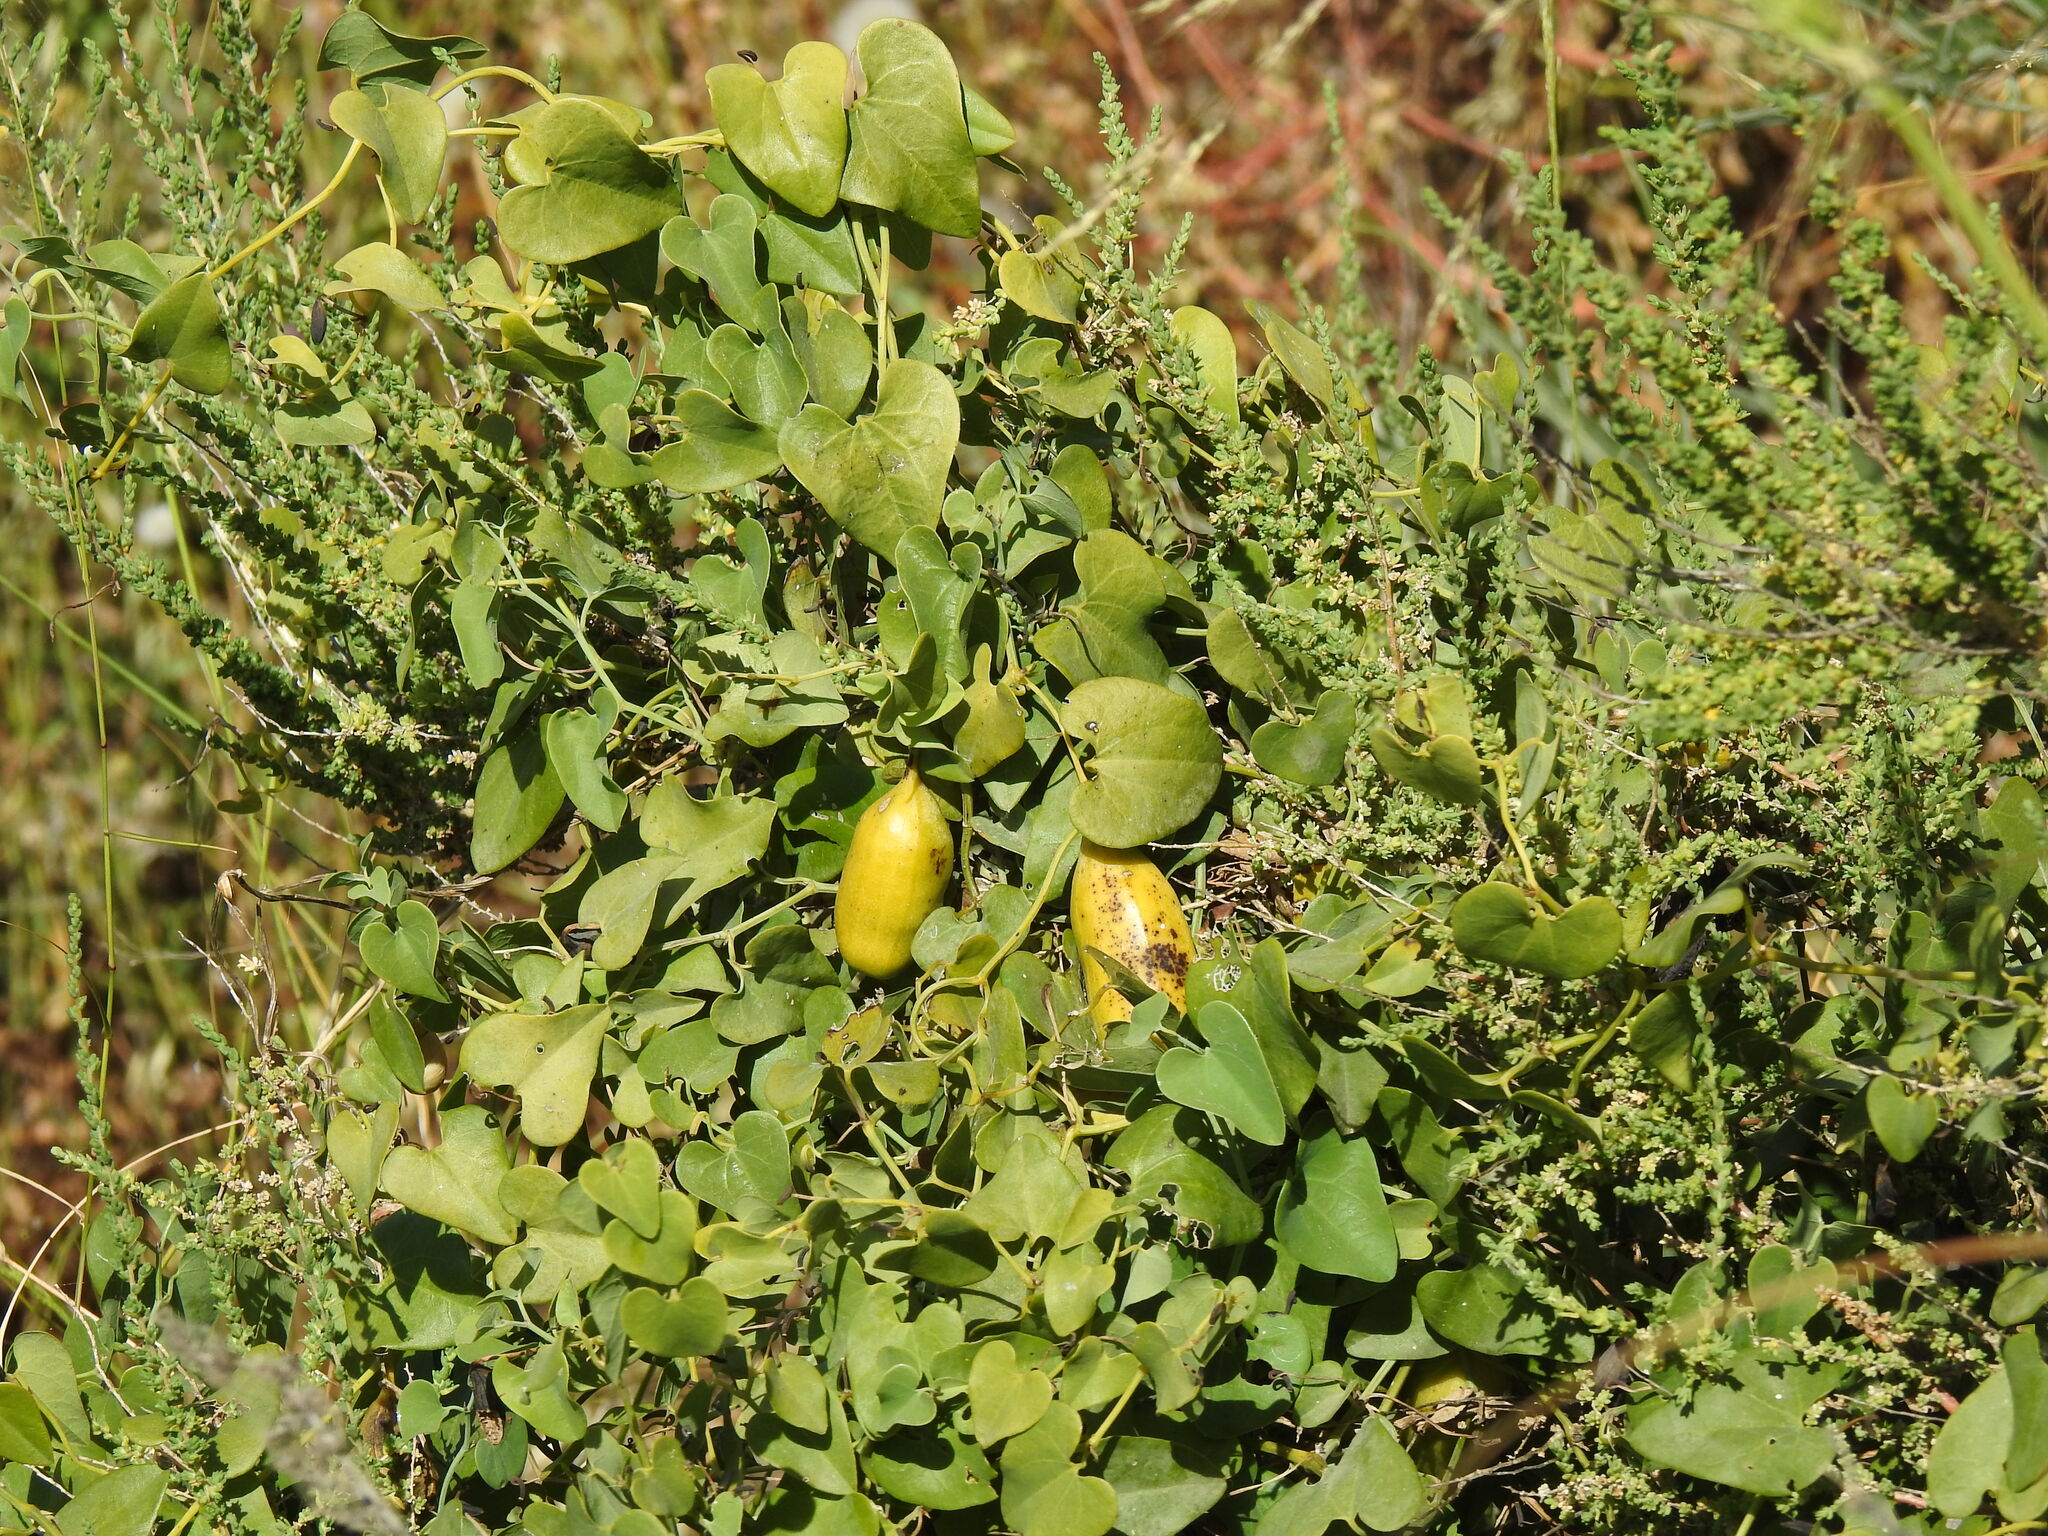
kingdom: Plantae
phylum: Tracheophyta
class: Magnoliopsida
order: Piperales
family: Aristolochiaceae
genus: Aristolochia
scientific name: Aristolochia baetica
